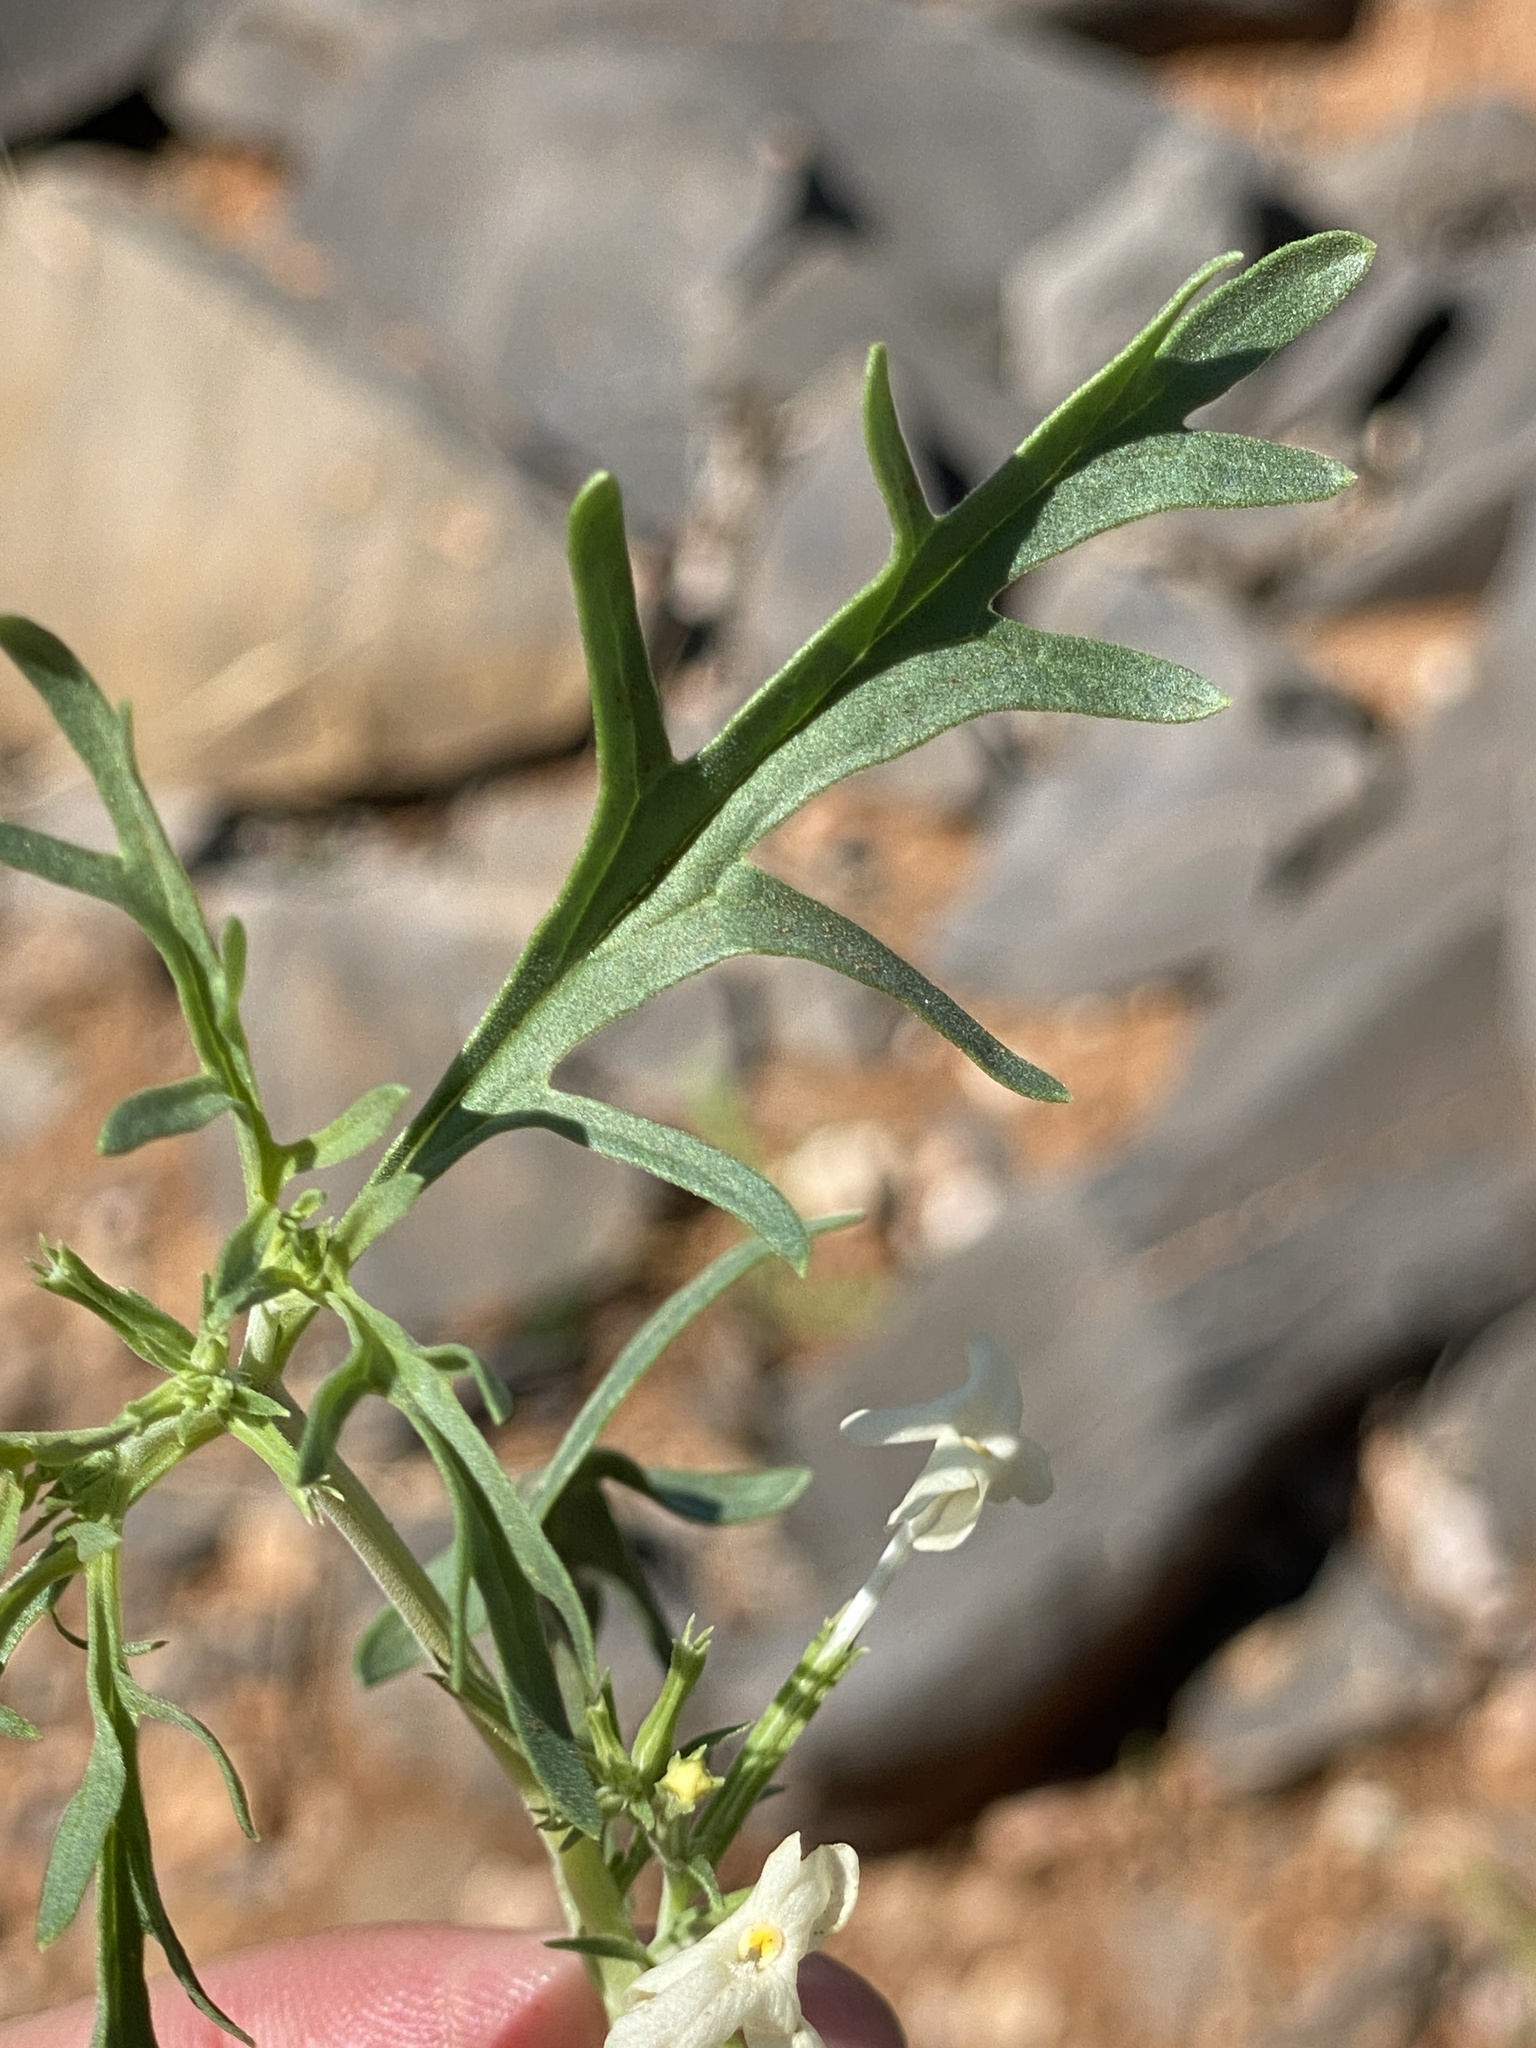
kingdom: Plantae
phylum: Tracheophyta
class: Magnoliopsida
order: Lamiales
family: Verbenaceae
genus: Chascanum
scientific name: Chascanum pinnatifidum
